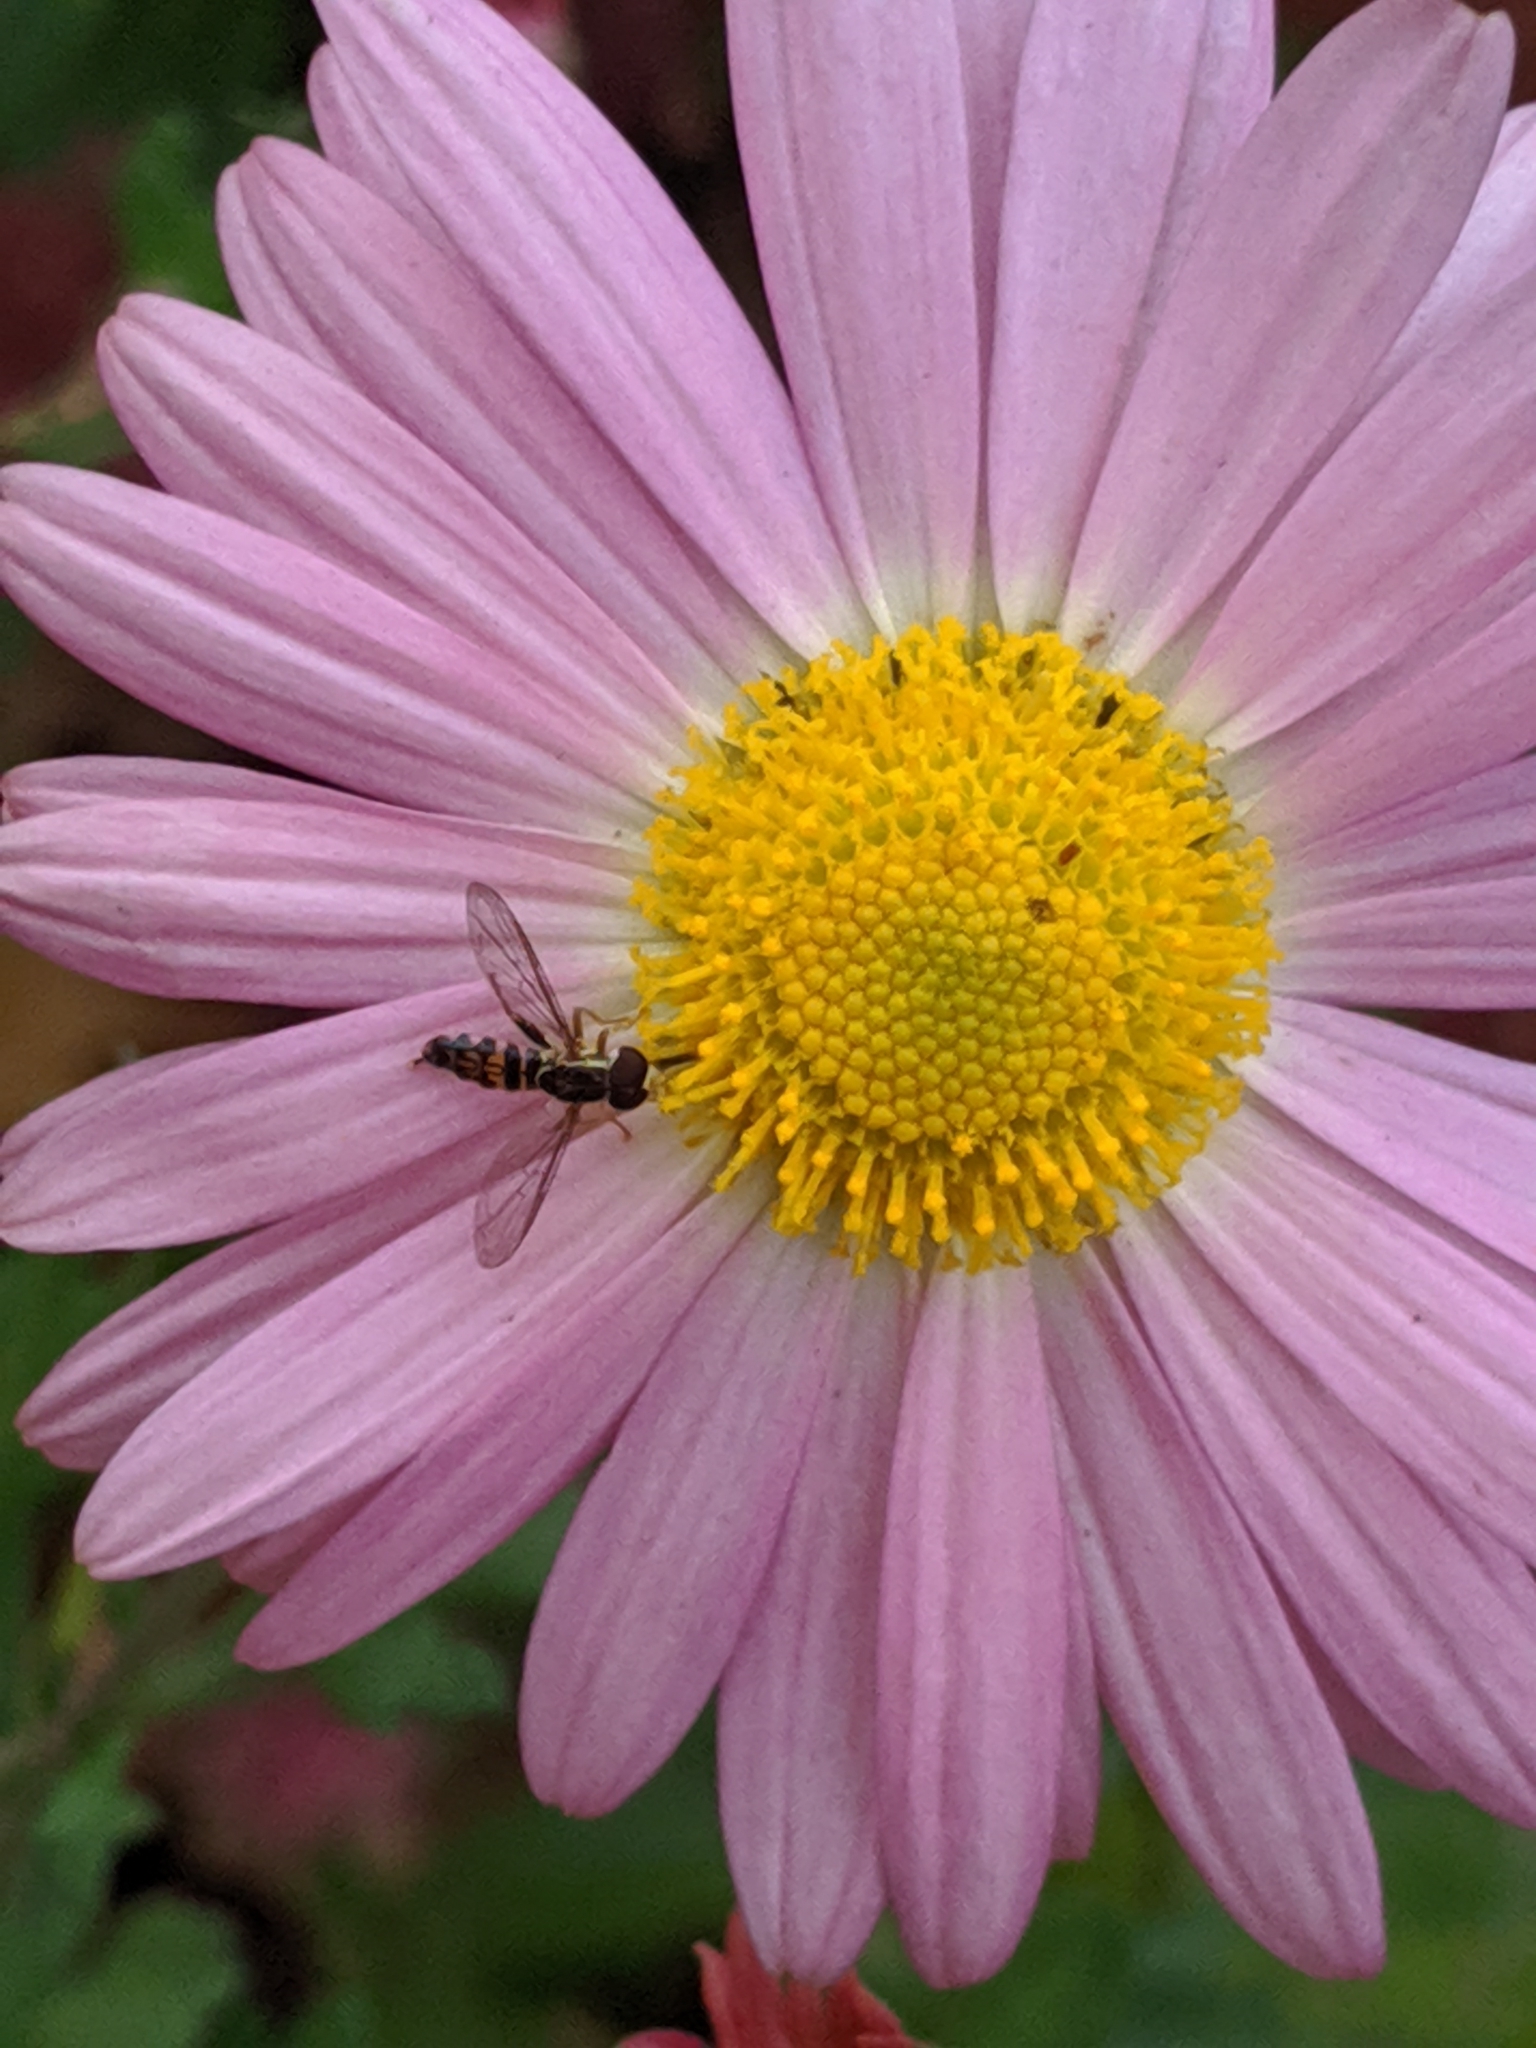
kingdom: Animalia
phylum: Arthropoda
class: Insecta
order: Diptera
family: Syrphidae
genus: Toxomerus
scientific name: Toxomerus geminatus
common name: Eastern calligrapher
